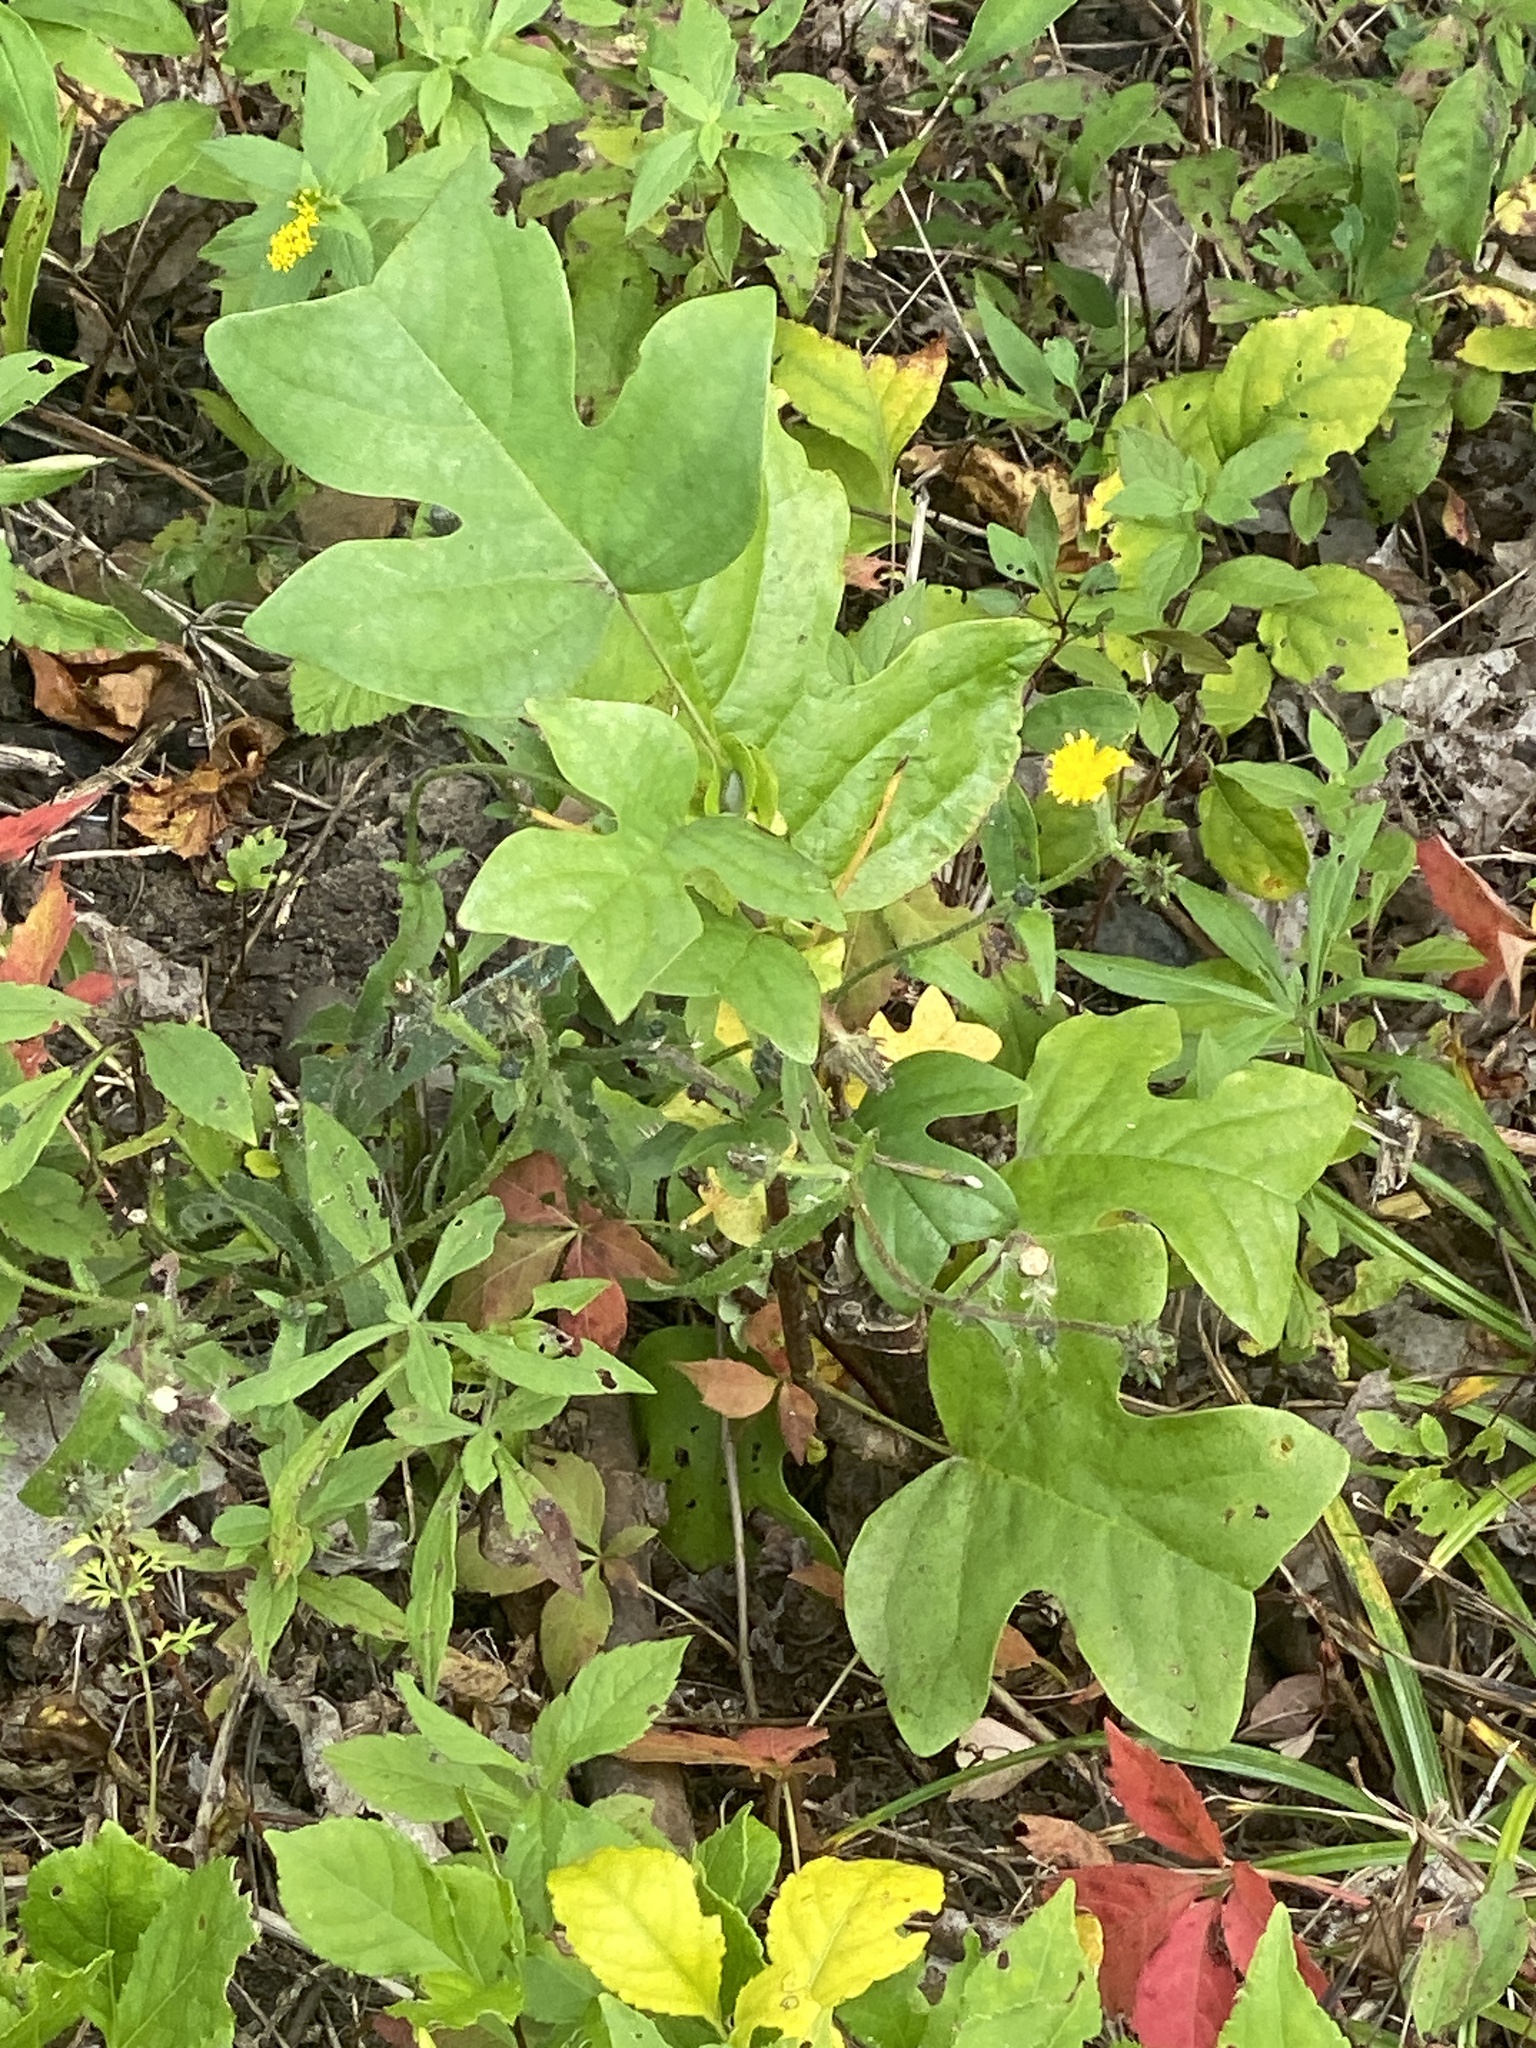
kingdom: Plantae
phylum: Tracheophyta
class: Magnoliopsida
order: Magnoliales
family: Magnoliaceae
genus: Liriodendron
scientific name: Liriodendron tulipifera
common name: Tulip tree
